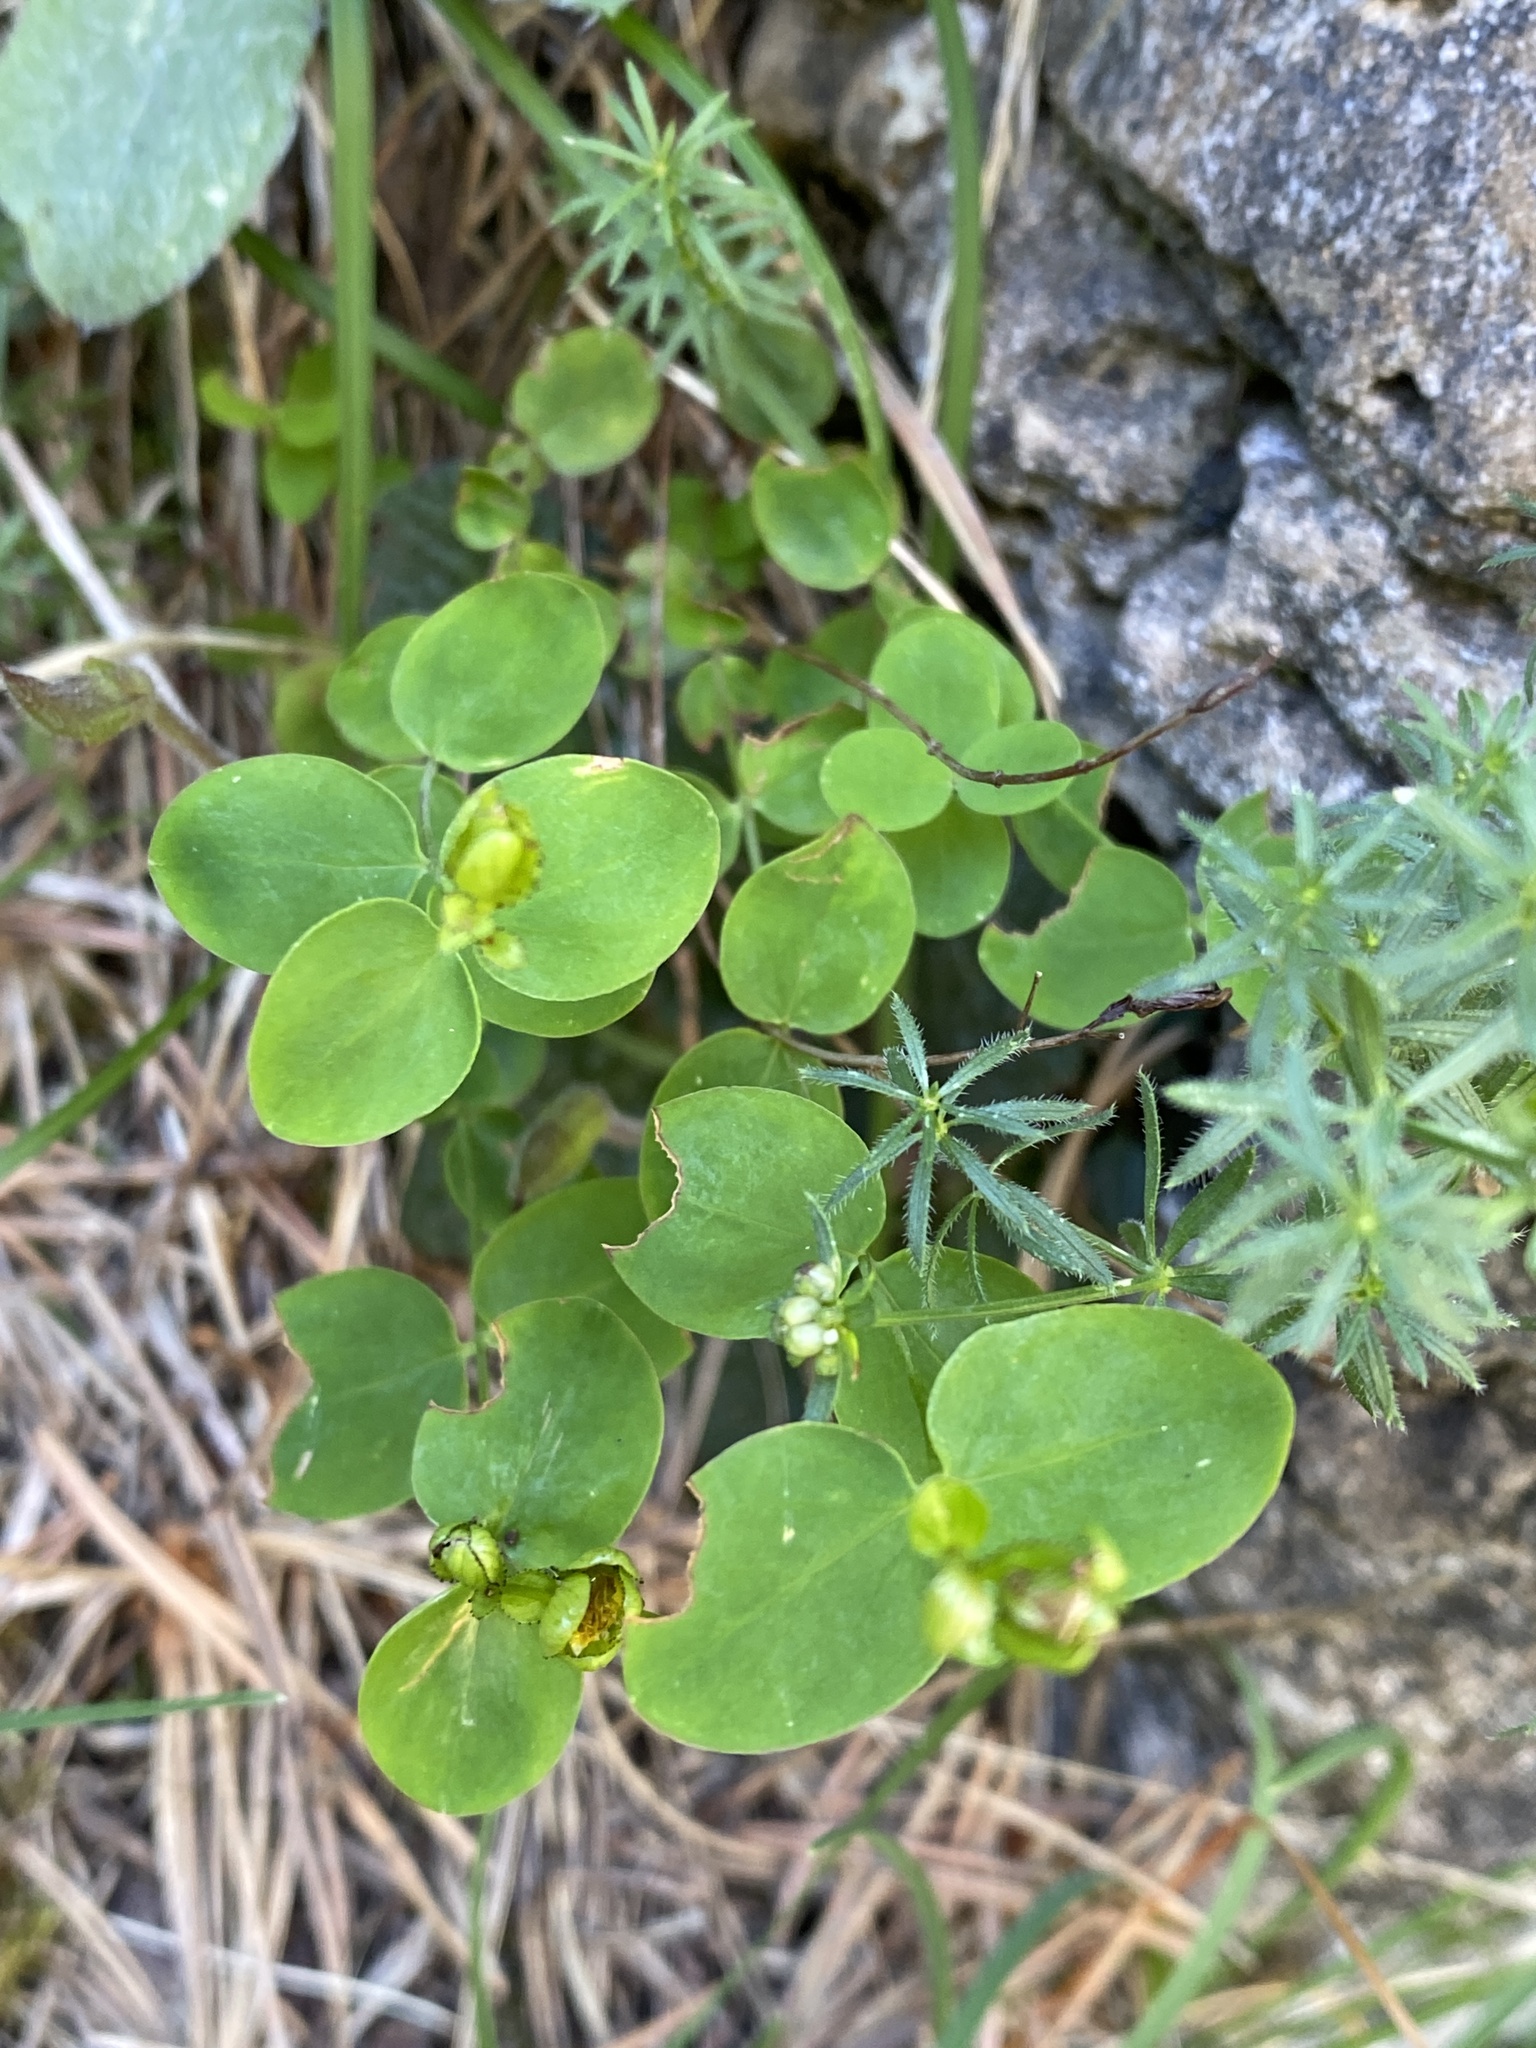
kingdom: Plantae
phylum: Tracheophyta
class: Magnoliopsida
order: Malpighiales
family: Hypericaceae
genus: Hypericum
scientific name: Hypericum nummularium
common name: Round-leaved st john's-wort
